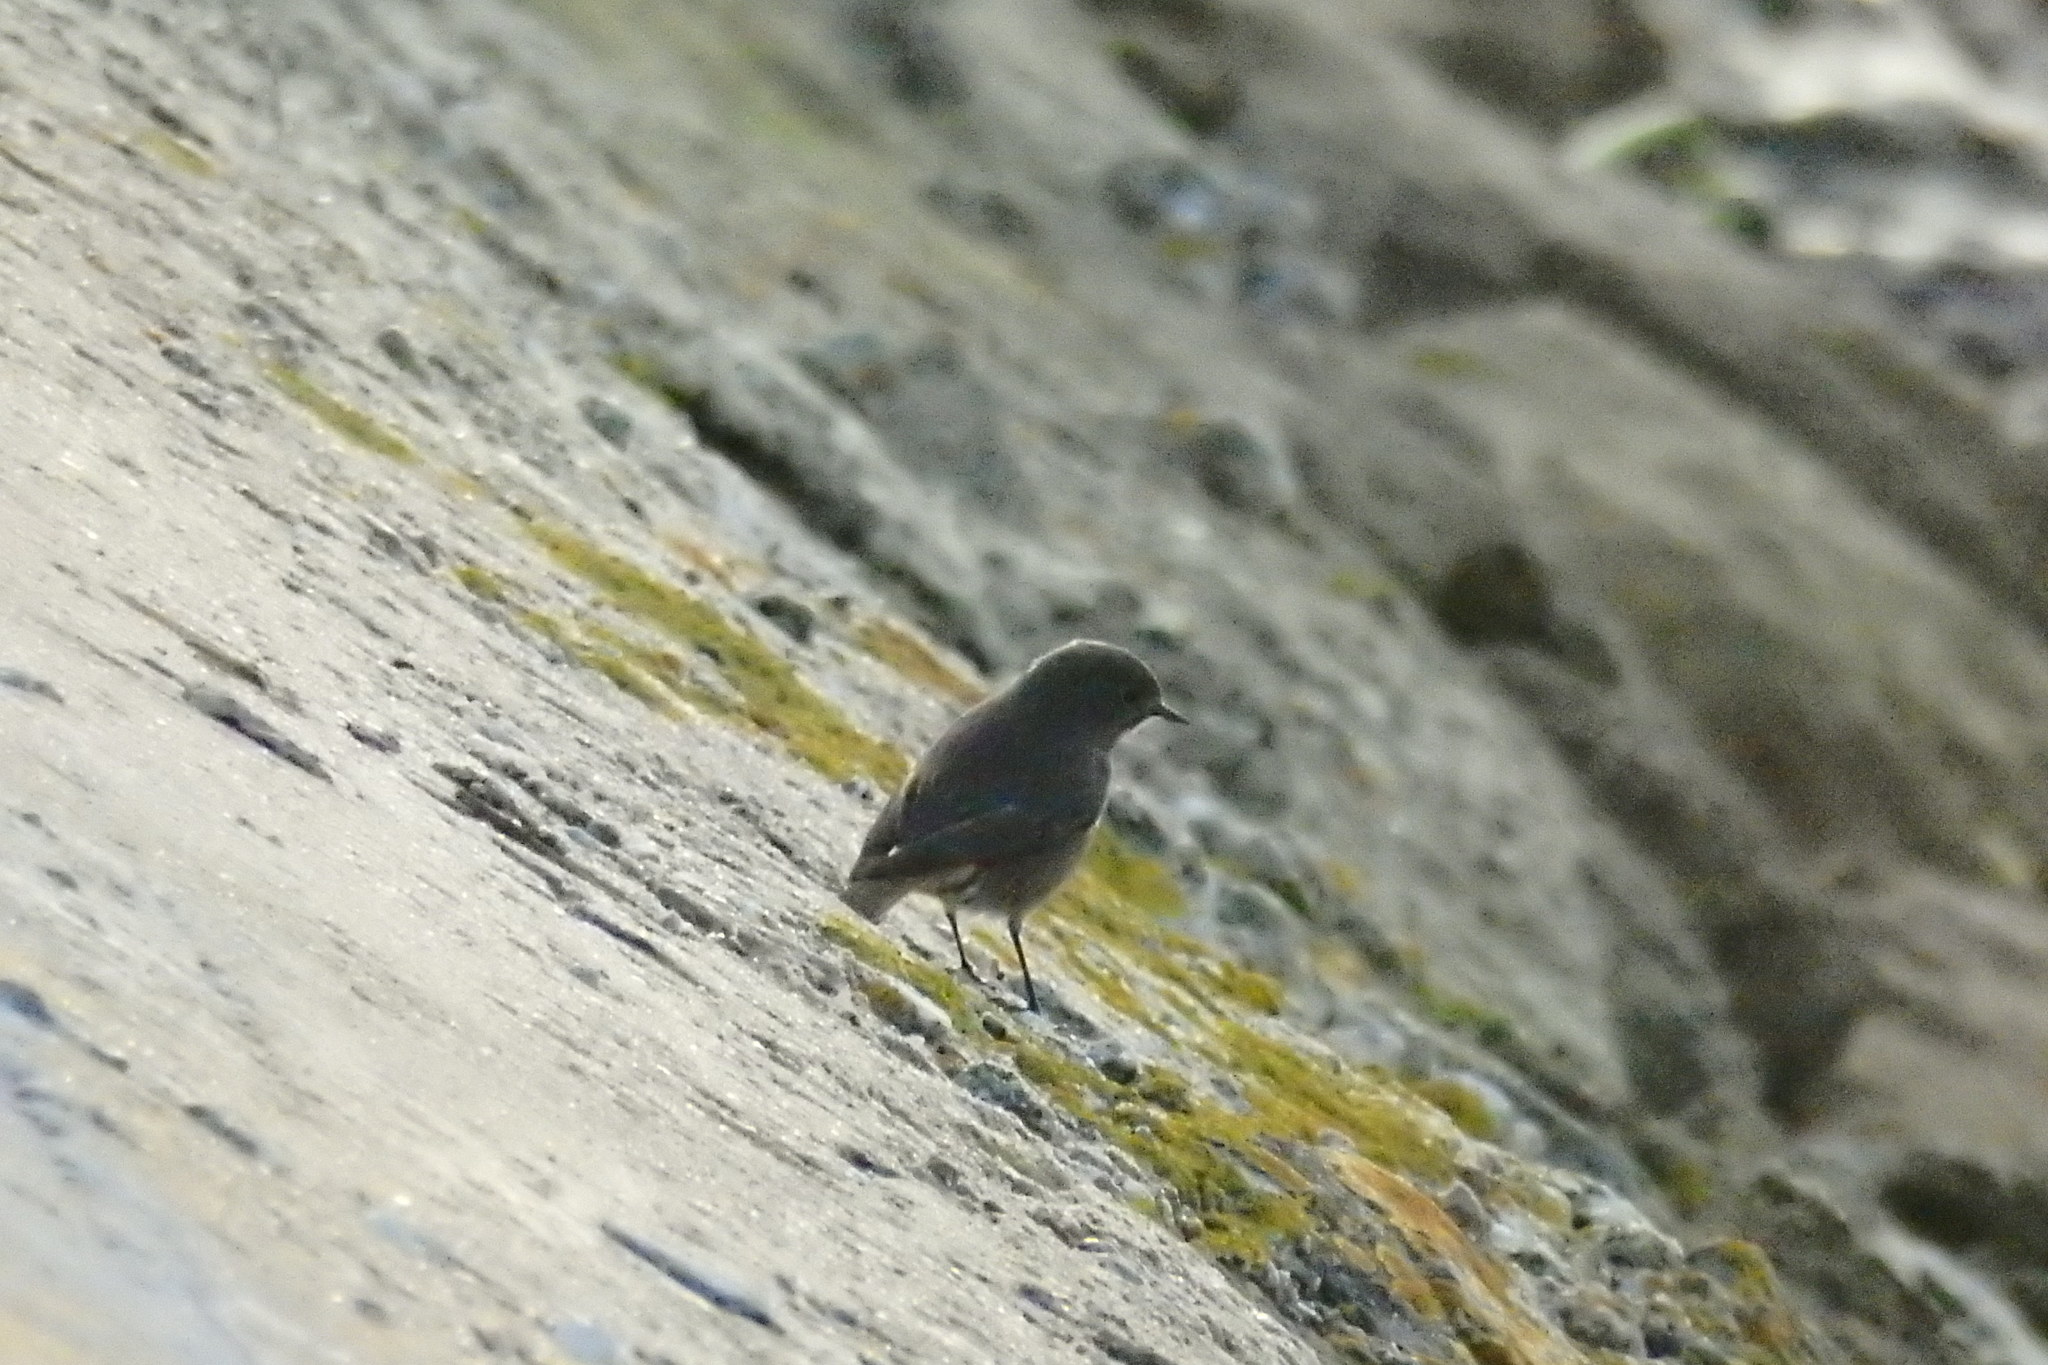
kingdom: Animalia
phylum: Chordata
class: Aves
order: Passeriformes
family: Muscicapidae
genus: Phoenicurus
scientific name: Phoenicurus ochruros
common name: Black redstart
